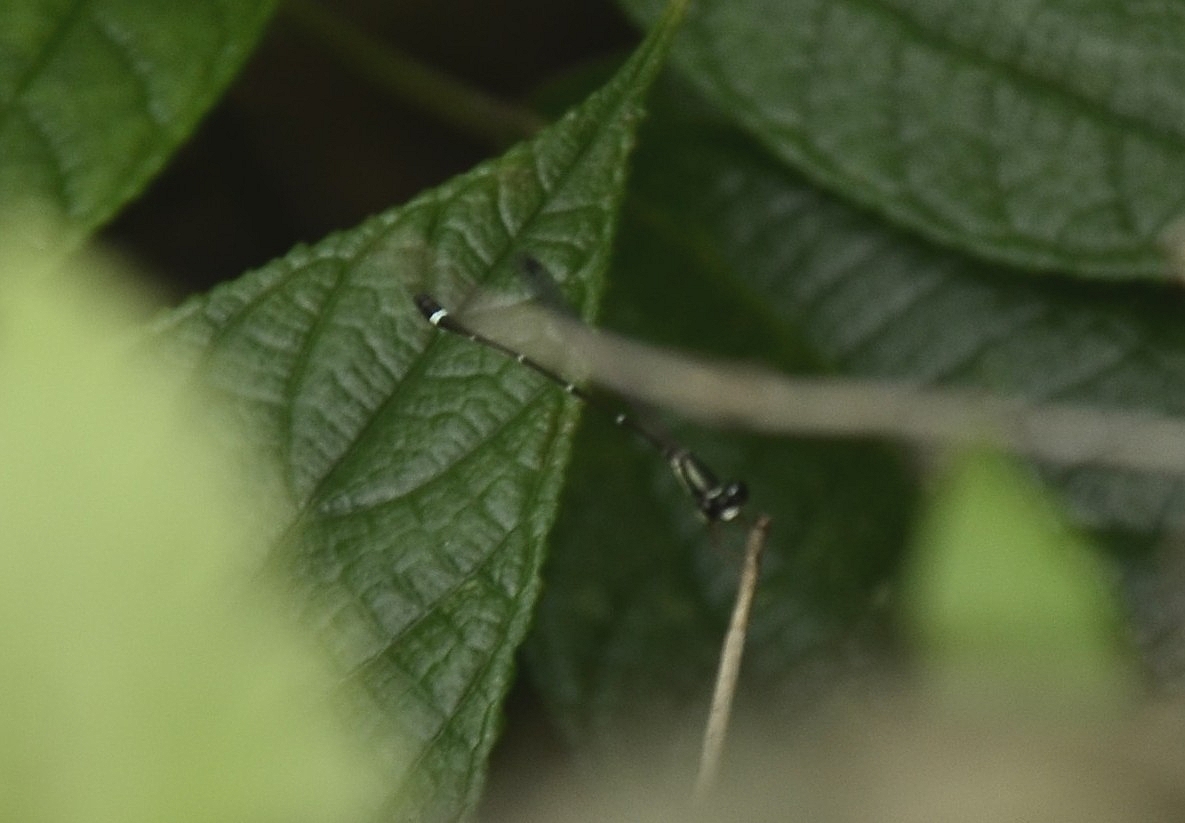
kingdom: Animalia
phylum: Arthropoda
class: Insecta
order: Odonata
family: Platystictidae
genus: Protosticta
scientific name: Protosticta gravelyi
